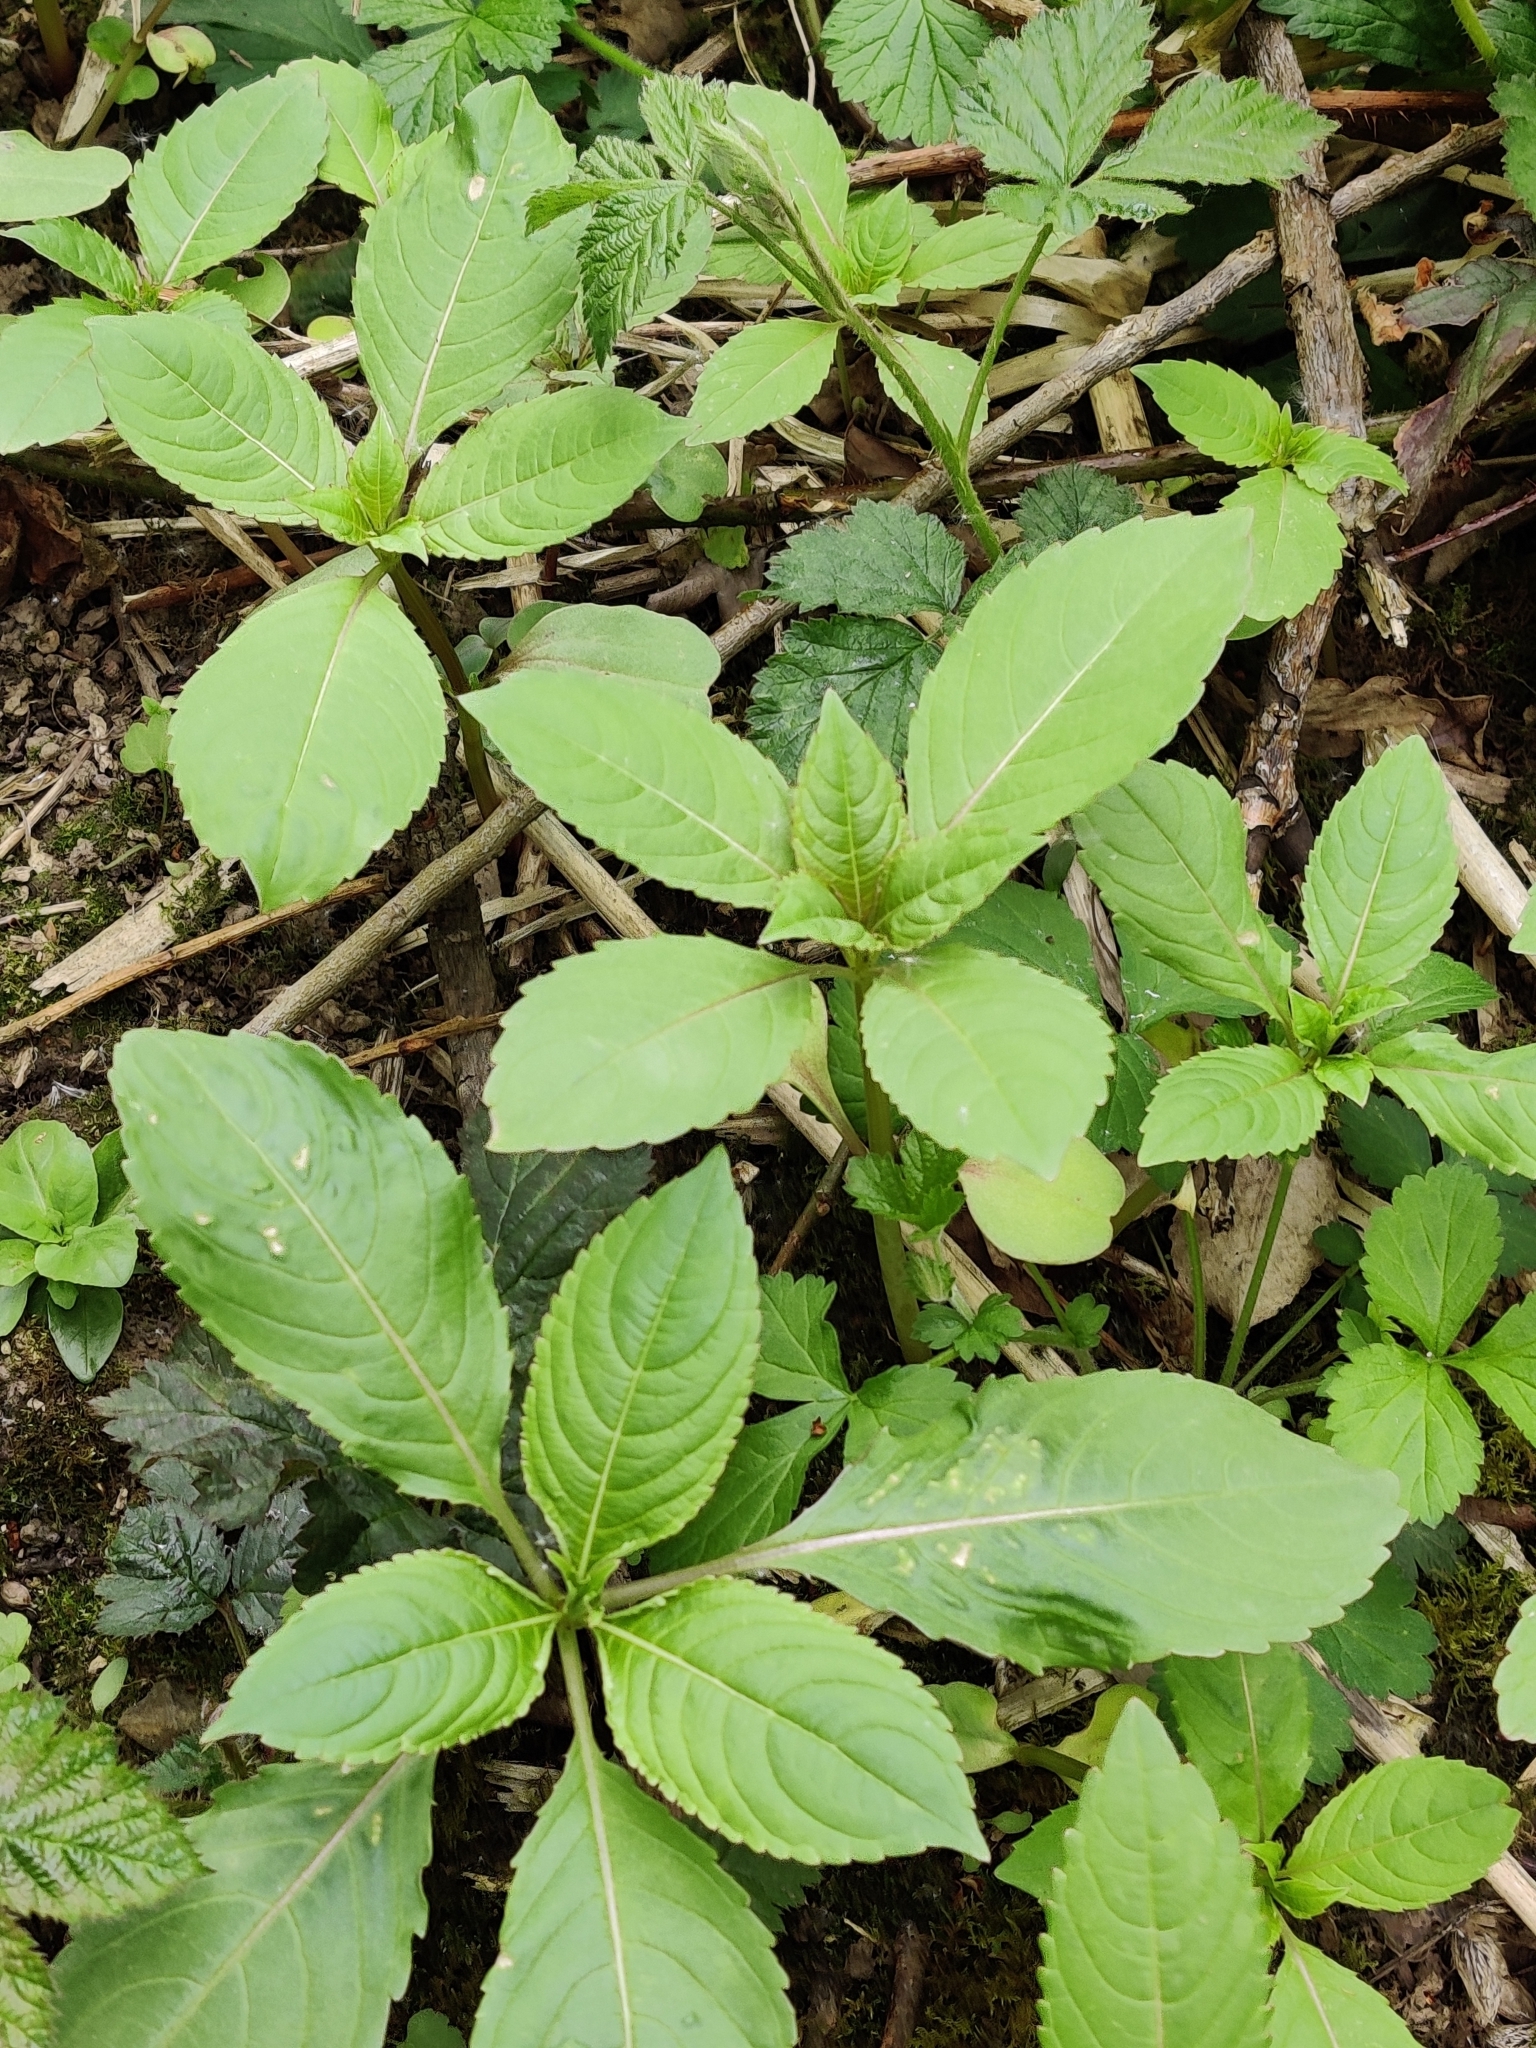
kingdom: Plantae
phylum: Tracheophyta
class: Magnoliopsida
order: Ericales
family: Balsaminaceae
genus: Impatiens
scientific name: Impatiens glandulifera
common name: Himalayan balsam
